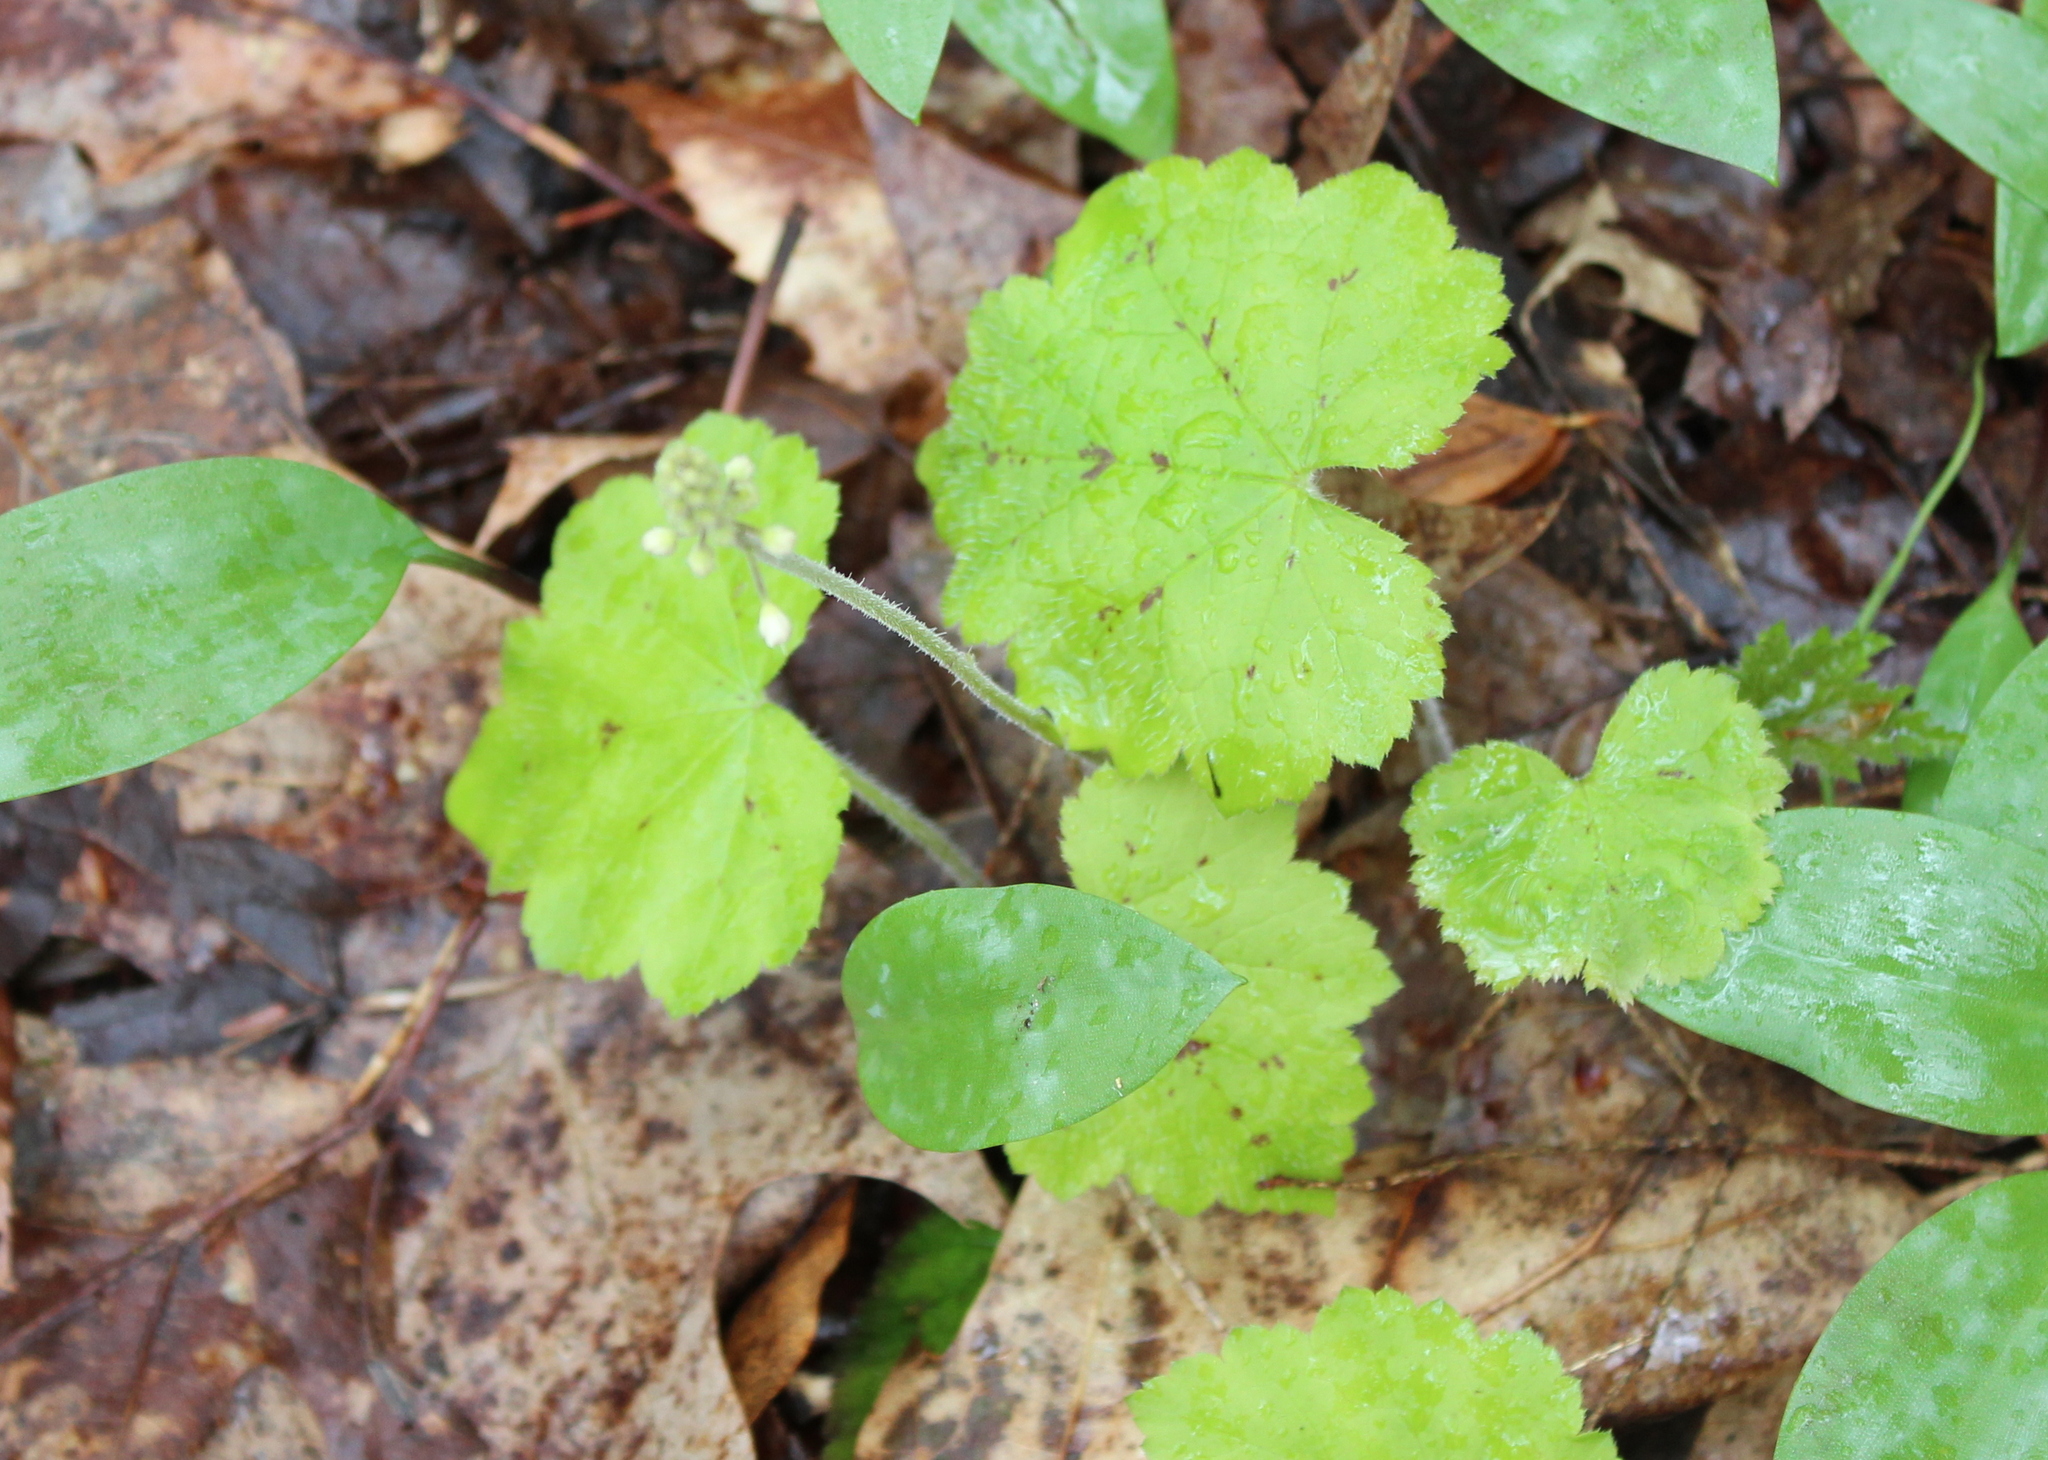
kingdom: Plantae
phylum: Tracheophyta
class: Magnoliopsida
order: Saxifragales
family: Saxifragaceae
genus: Tiarella
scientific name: Tiarella stolonifera
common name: Stoloniferous foamflower
